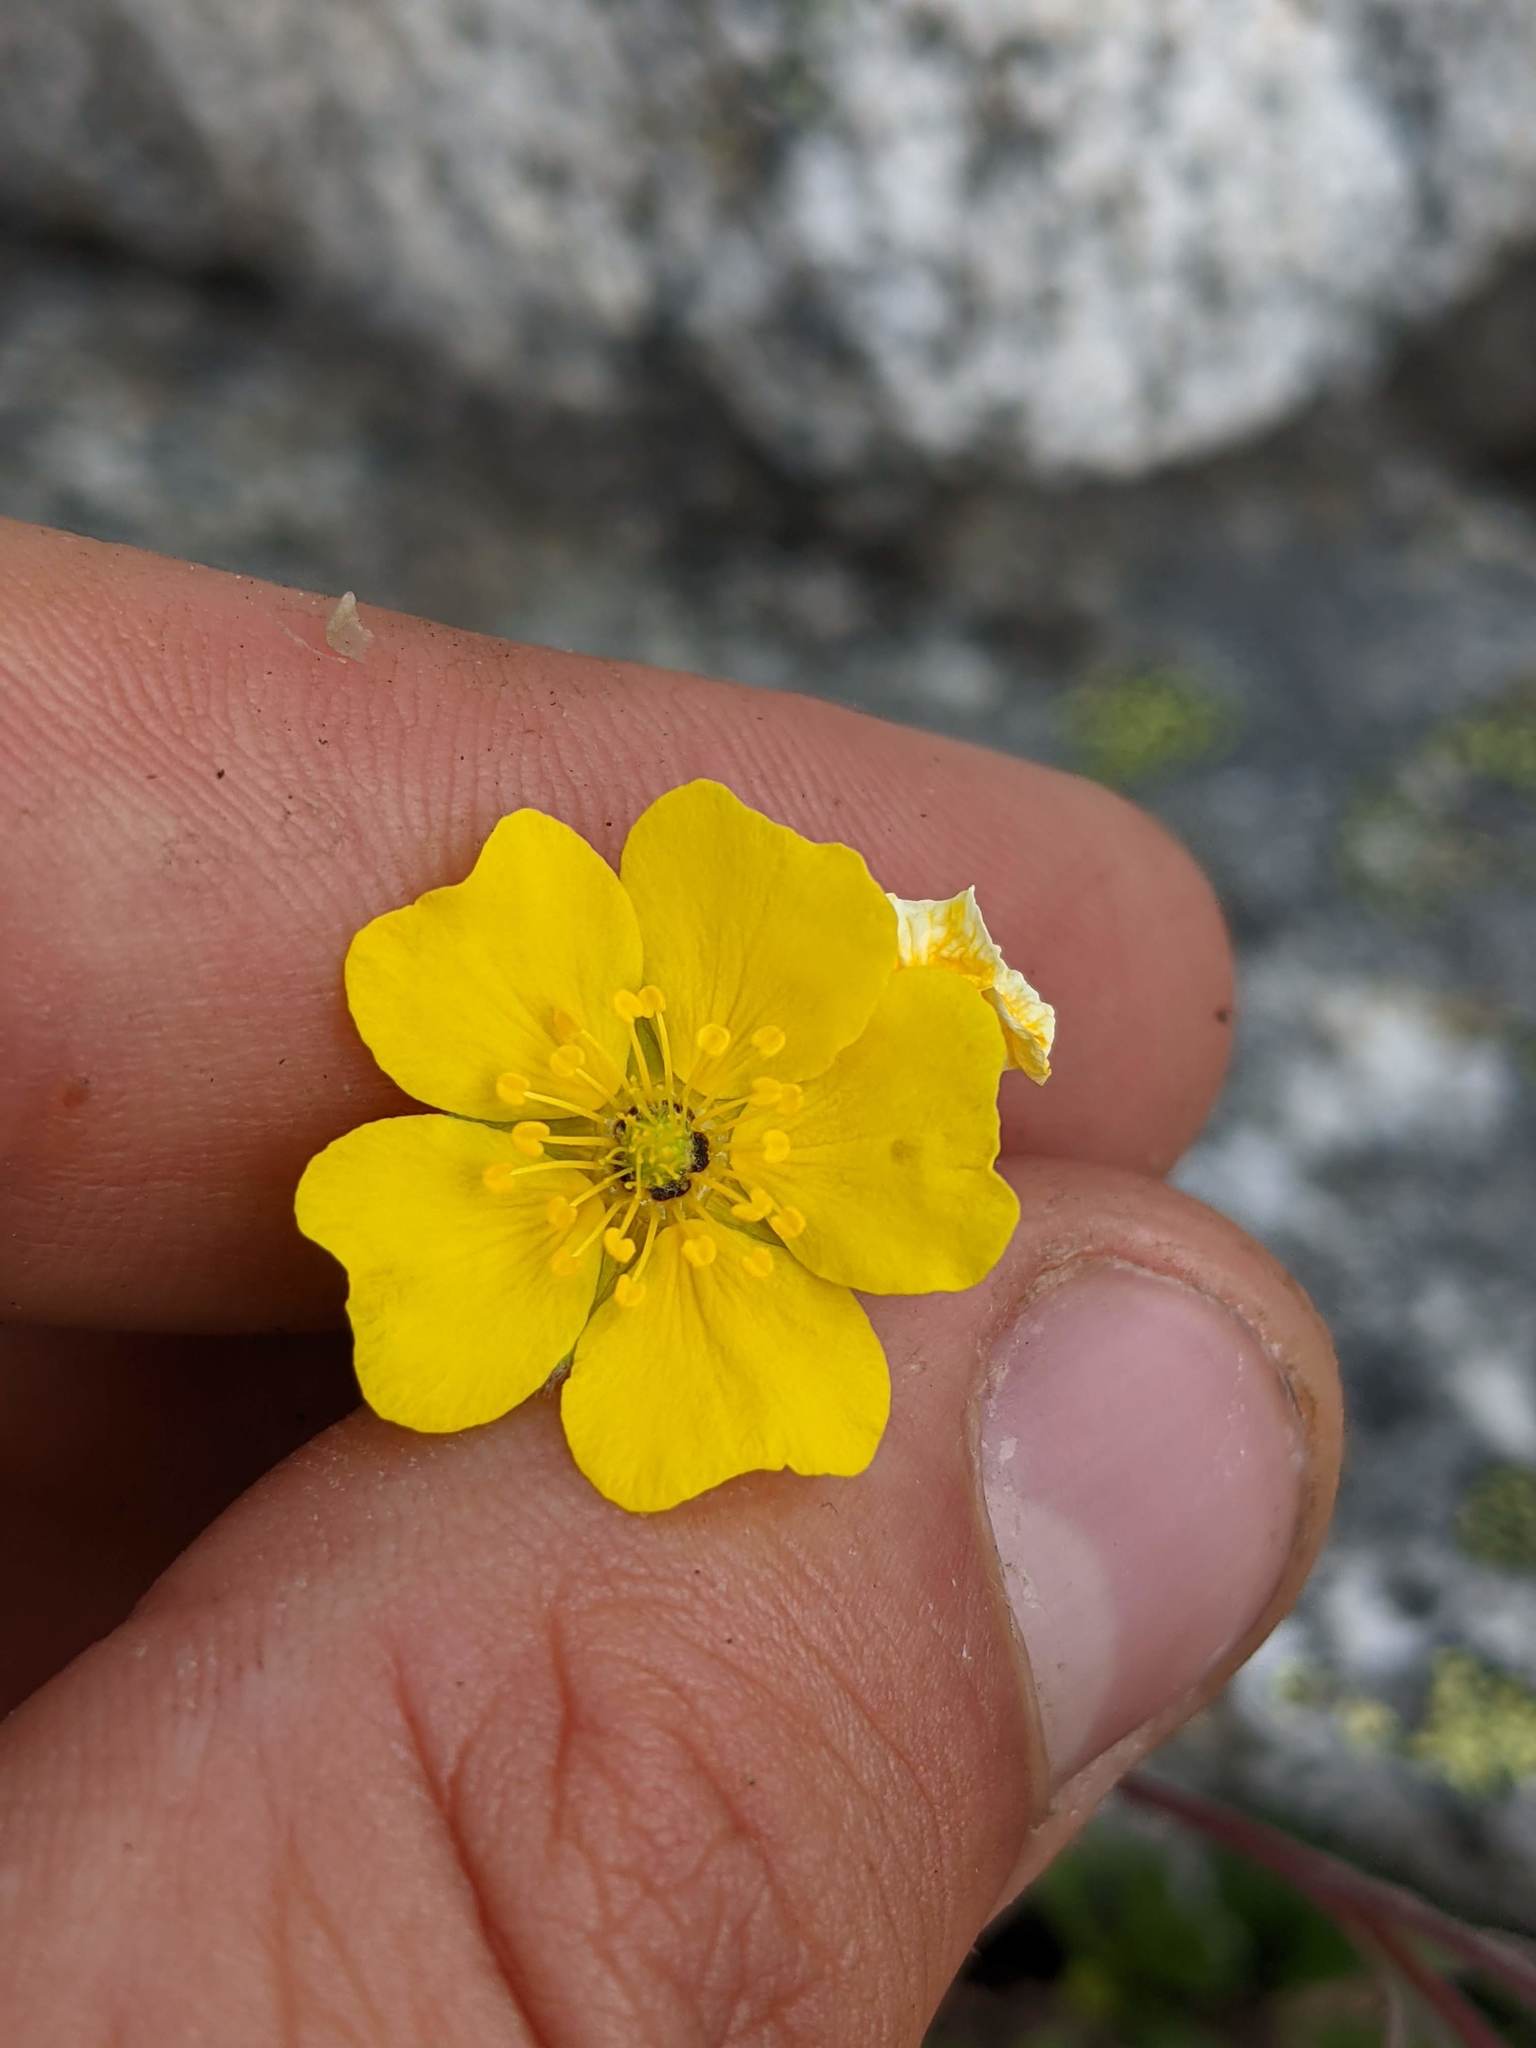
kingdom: Plantae
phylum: Tracheophyta
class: Magnoliopsida
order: Rosales
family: Rosaceae
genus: Potentilla
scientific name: Potentilla glaucophylla
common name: Blue-leaved cinquefoil
